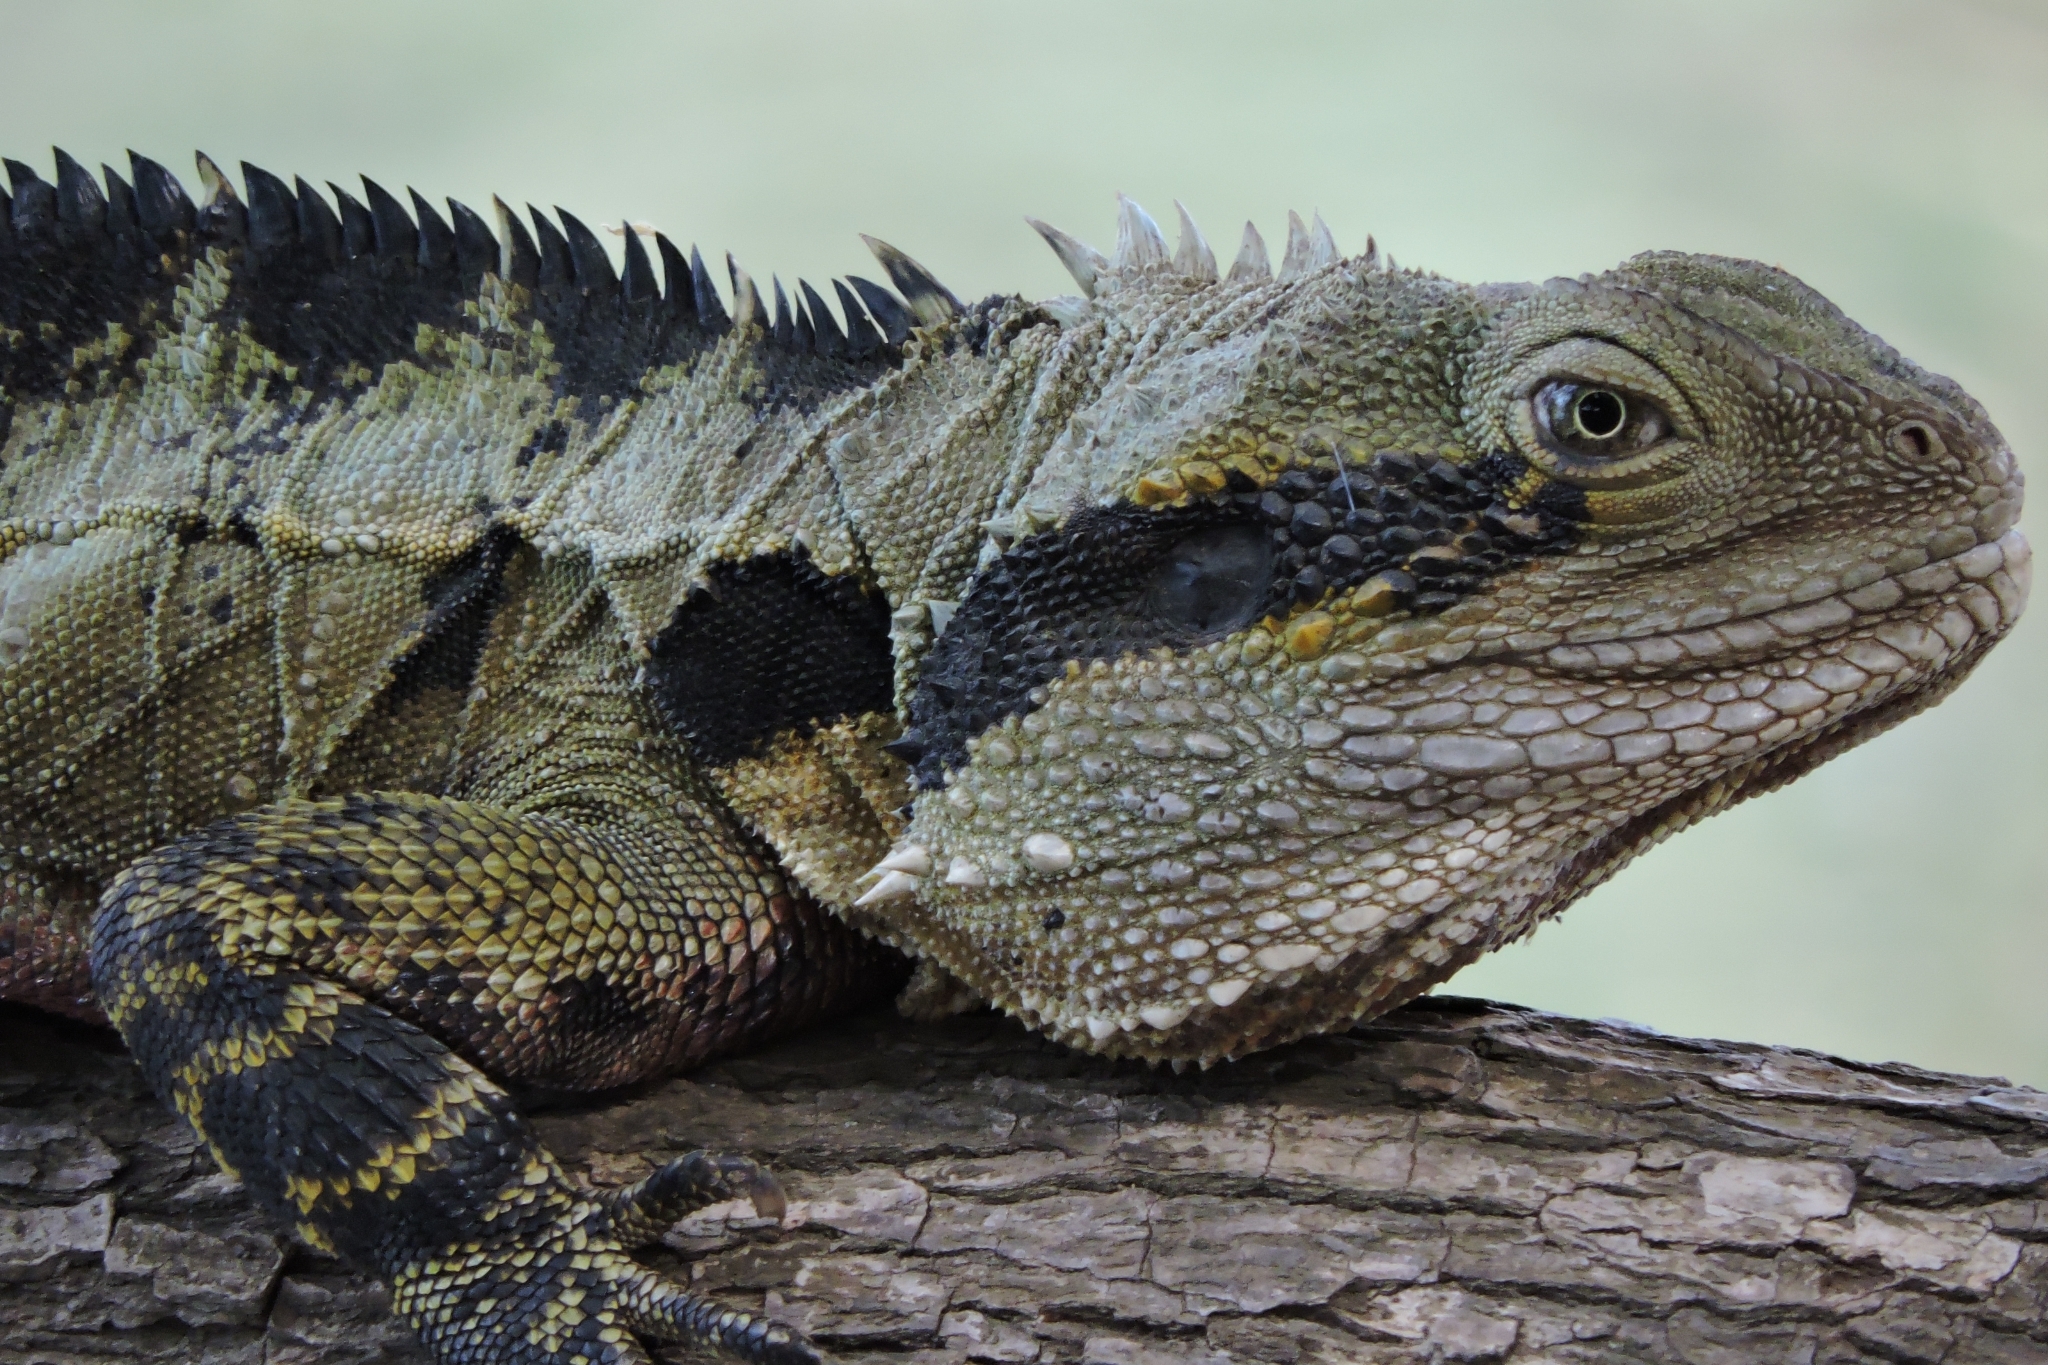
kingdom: Animalia
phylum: Chordata
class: Squamata
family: Agamidae
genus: Intellagama
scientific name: Intellagama lesueurii
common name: Eastern water dragon
